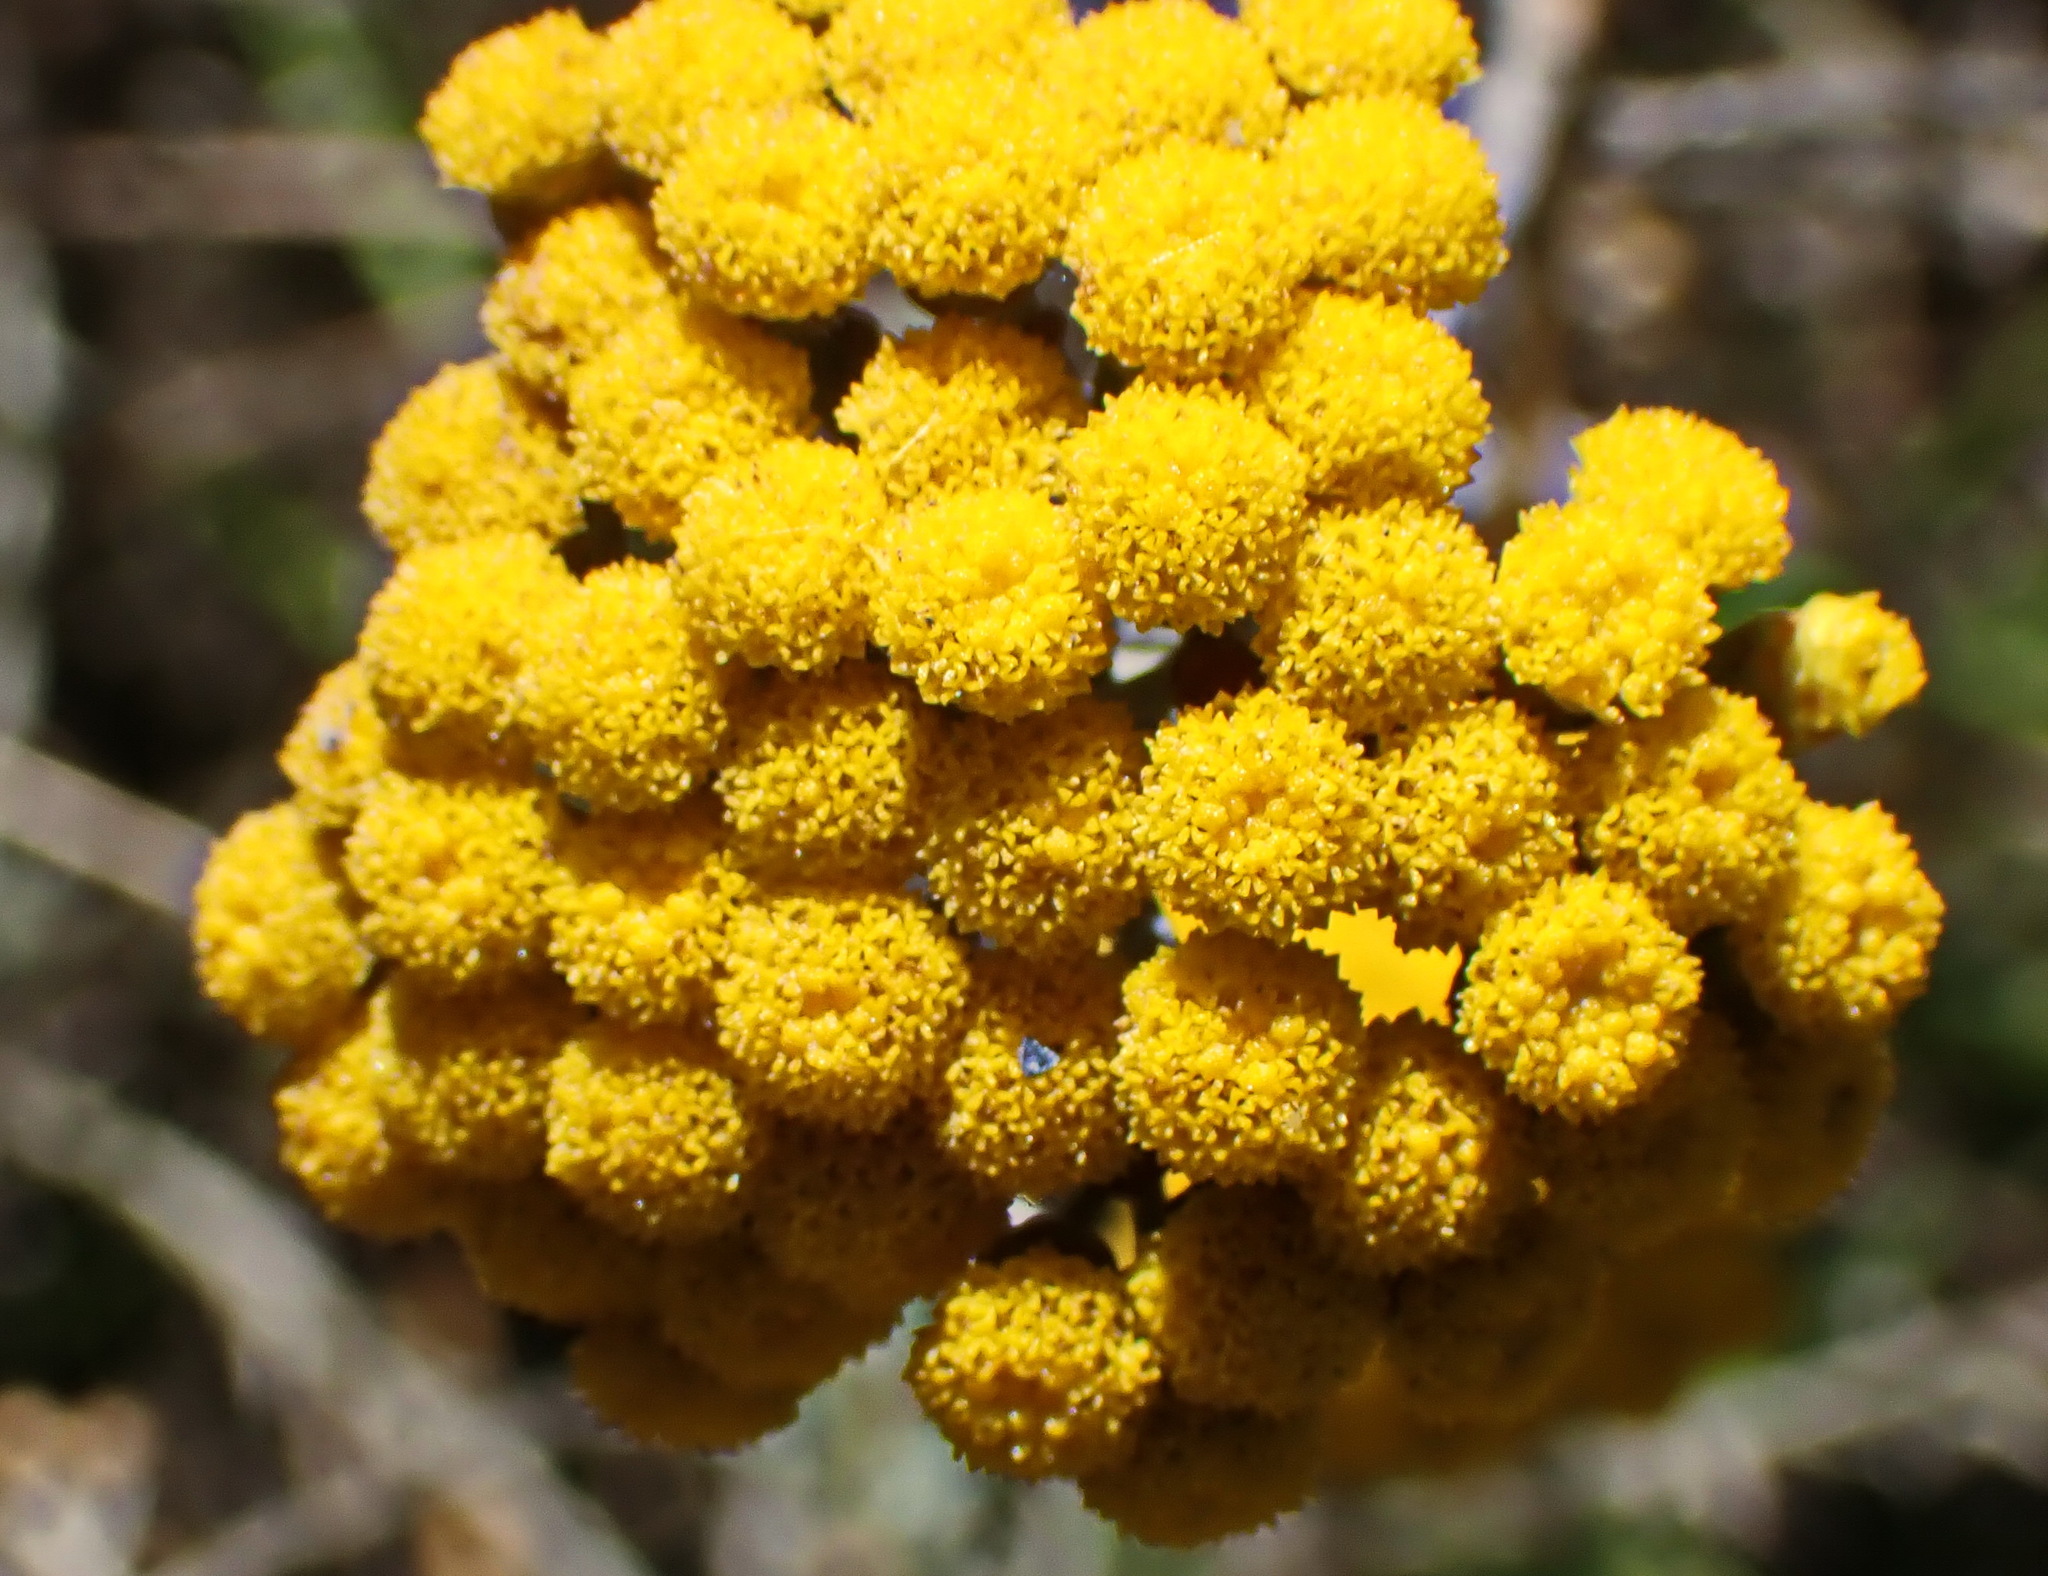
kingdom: Plantae
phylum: Tracheophyta
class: Magnoliopsida
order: Asterales
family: Asteraceae
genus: Helichrysum
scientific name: Helichrysum cymosum
